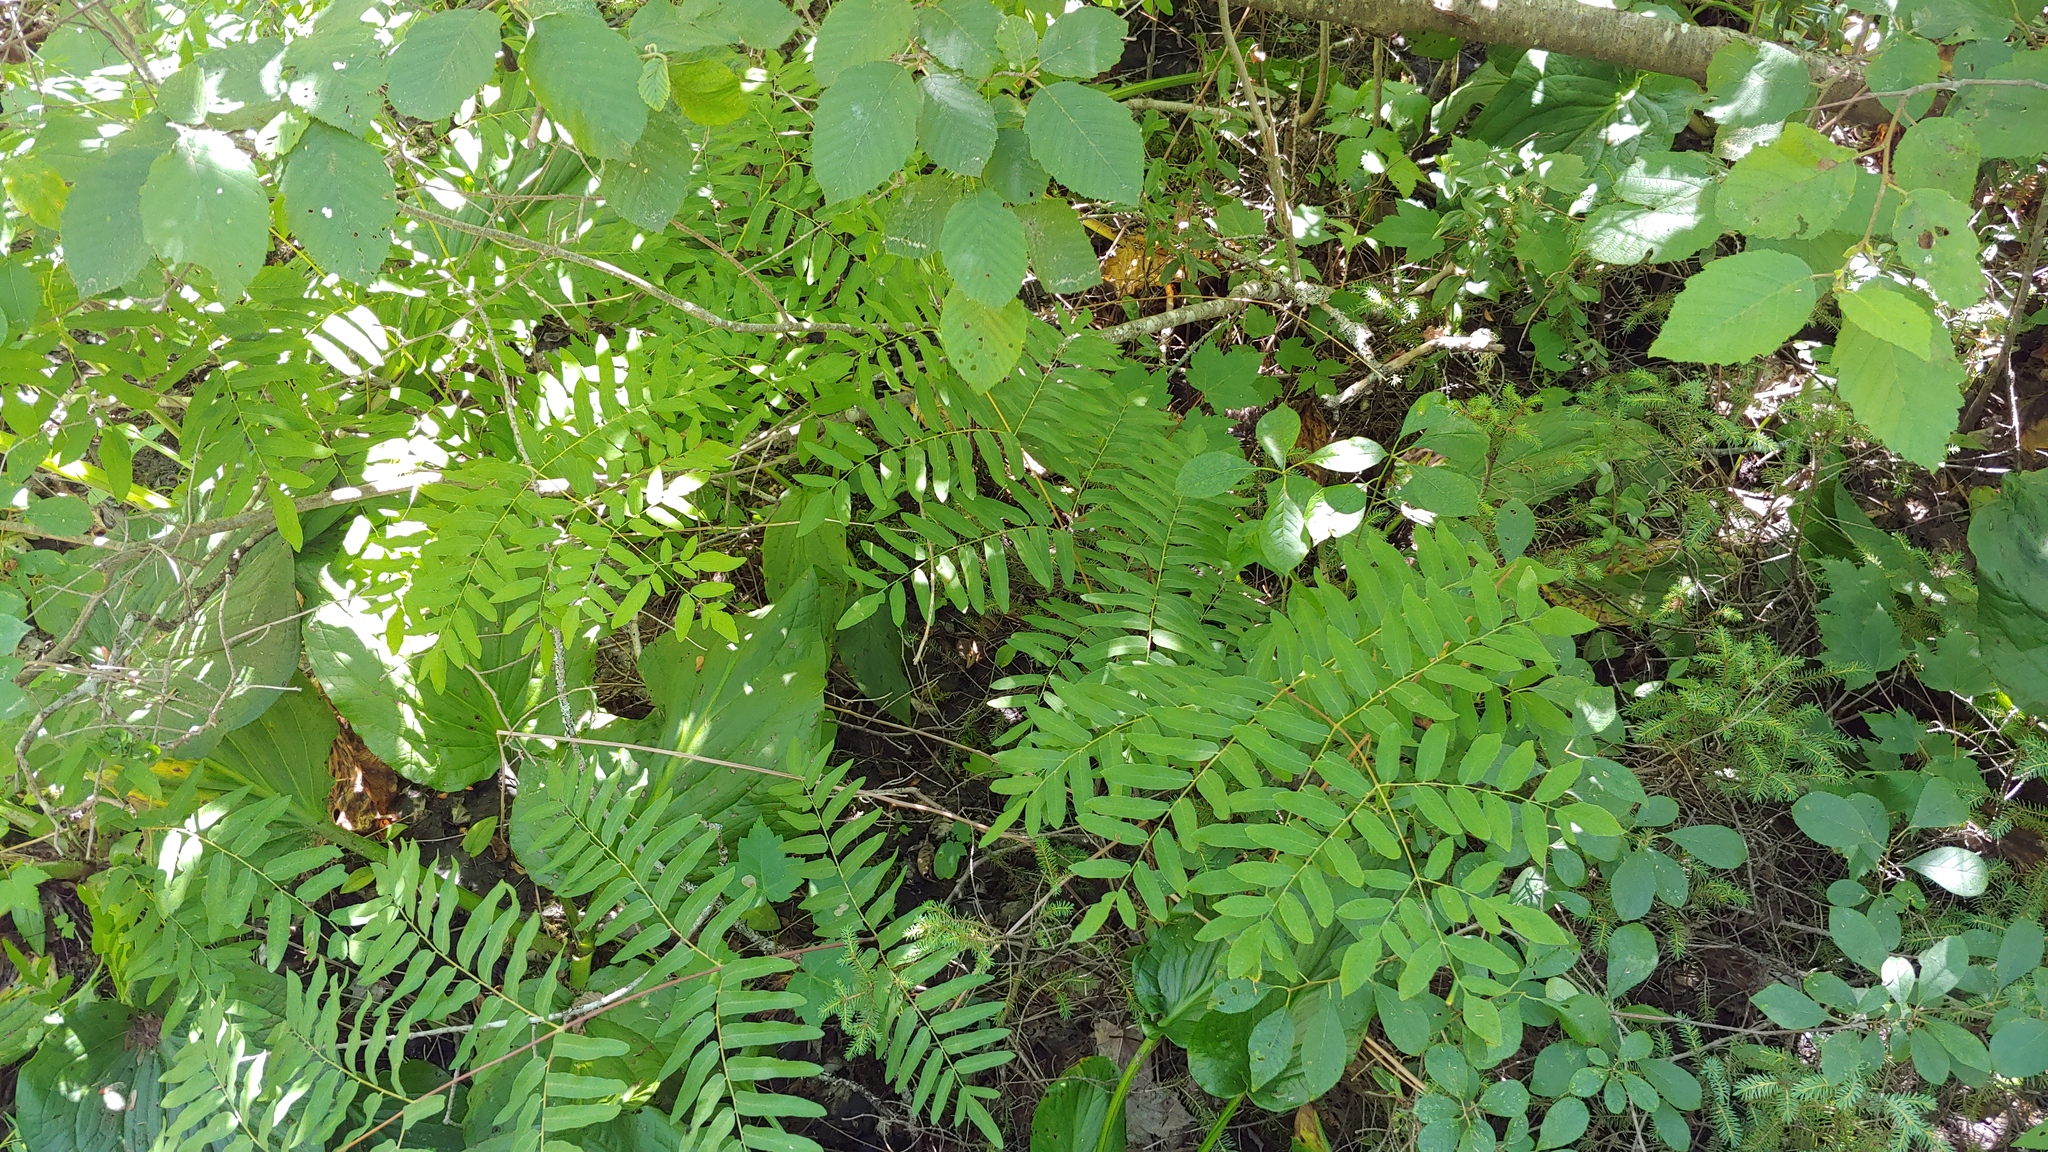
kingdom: Plantae
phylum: Tracheophyta
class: Polypodiopsida
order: Osmundales
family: Osmundaceae
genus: Osmunda
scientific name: Osmunda spectabilis
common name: American royal fern
